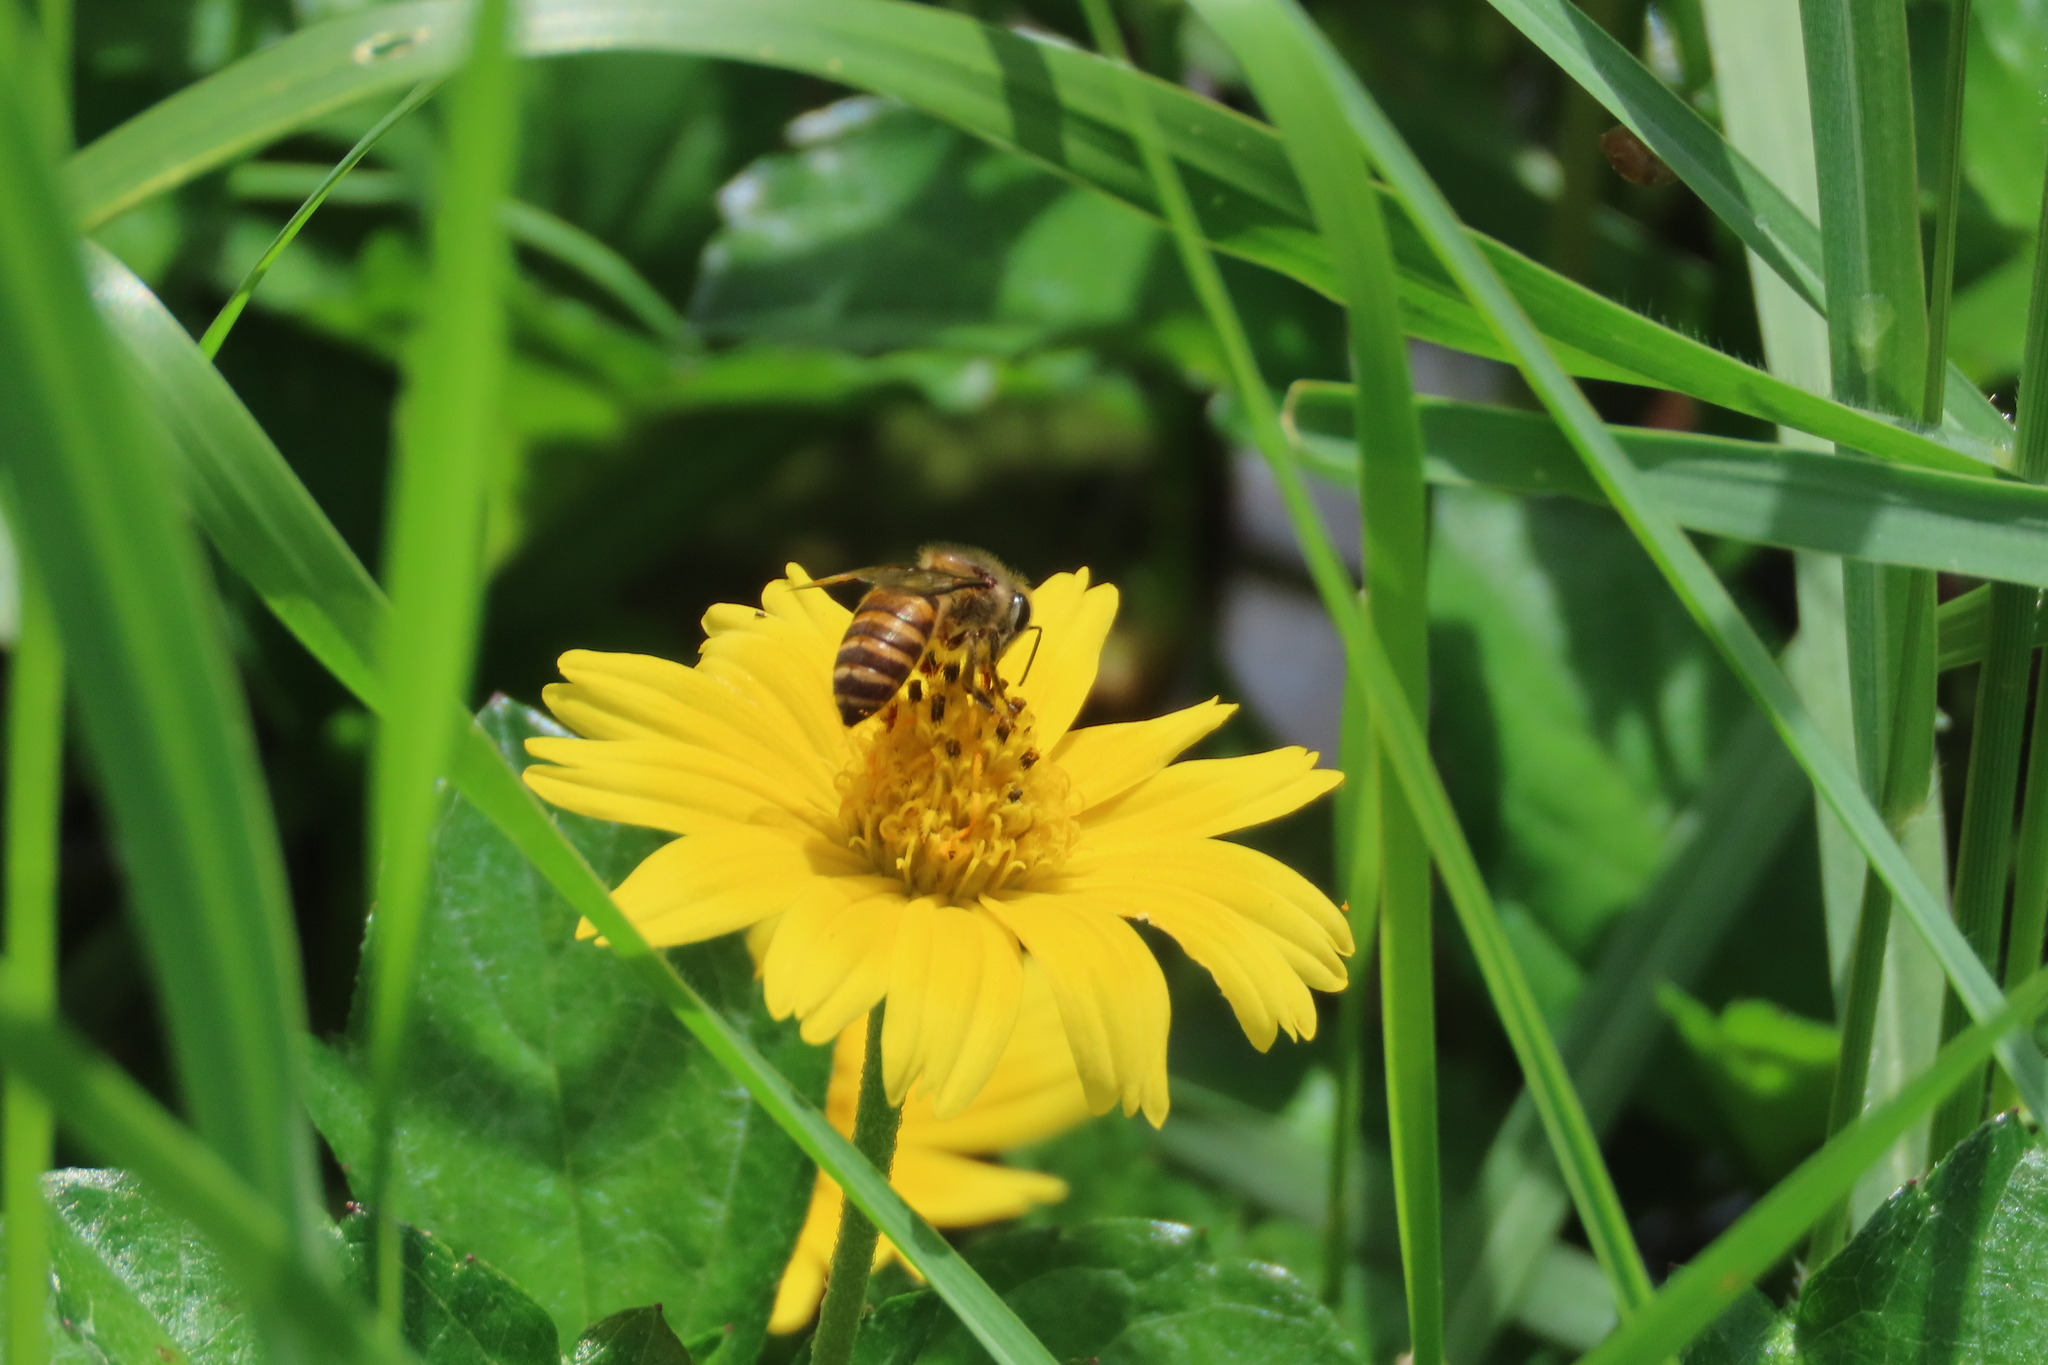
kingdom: Animalia
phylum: Arthropoda
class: Insecta
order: Hymenoptera
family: Apidae
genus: Apis
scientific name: Apis cerana
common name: Honey bee
